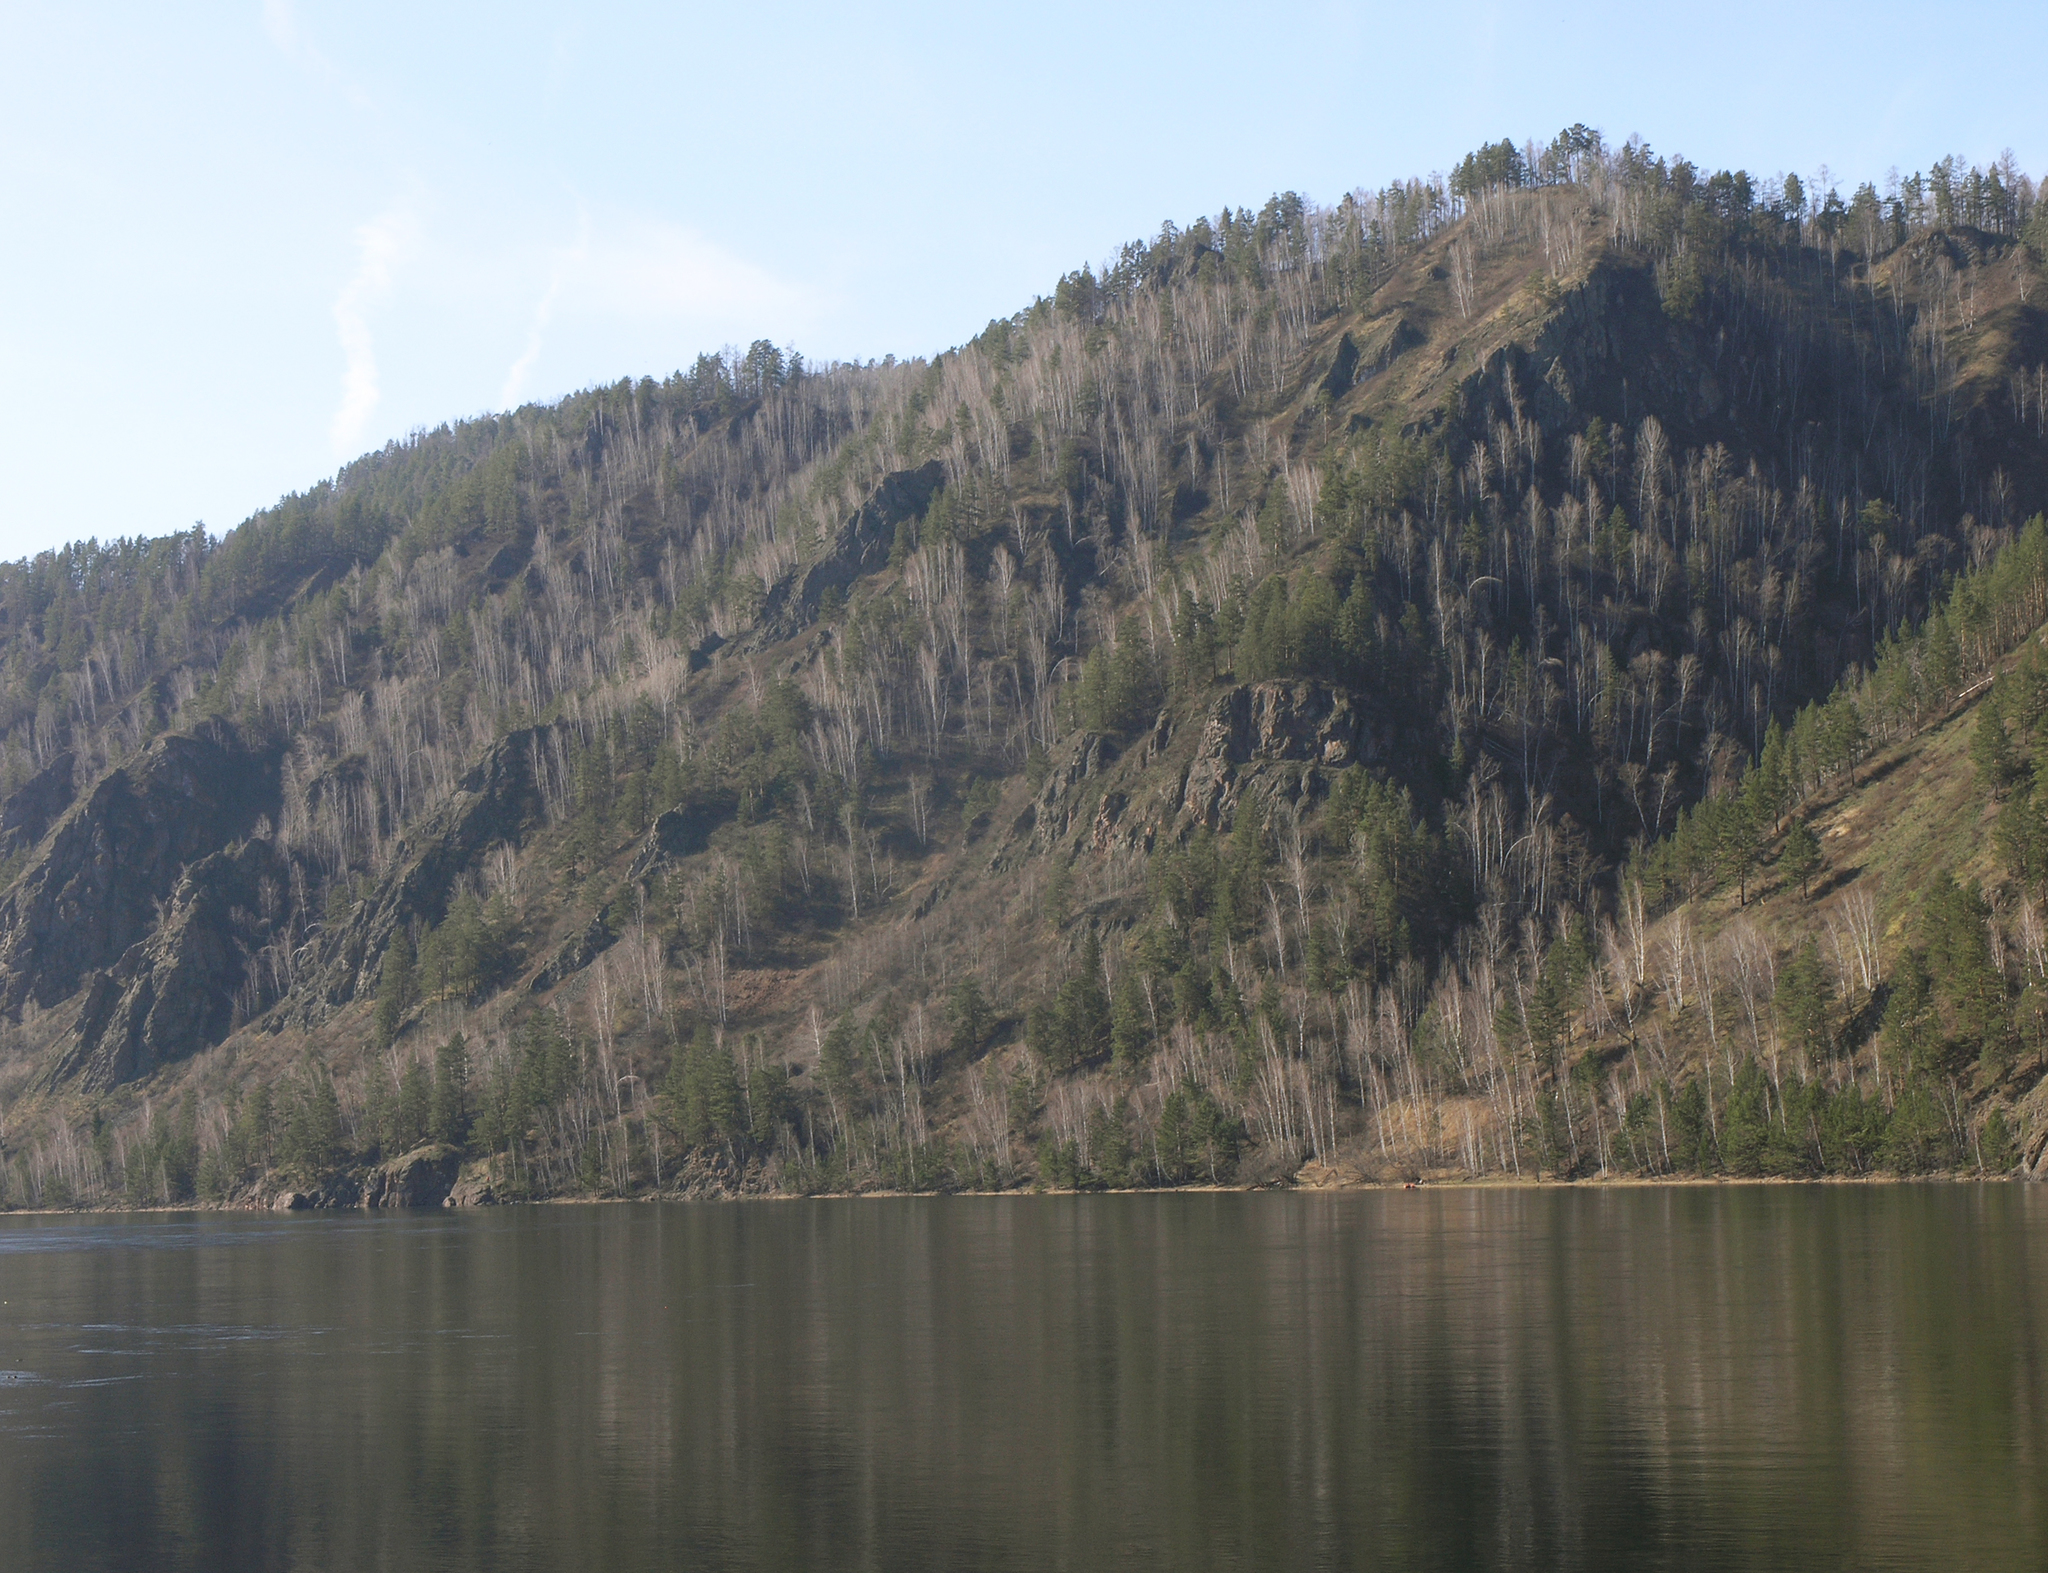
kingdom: Plantae
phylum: Tracheophyta
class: Pinopsida
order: Pinales
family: Pinaceae
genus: Pinus
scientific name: Pinus sylvestris
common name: Scots pine
